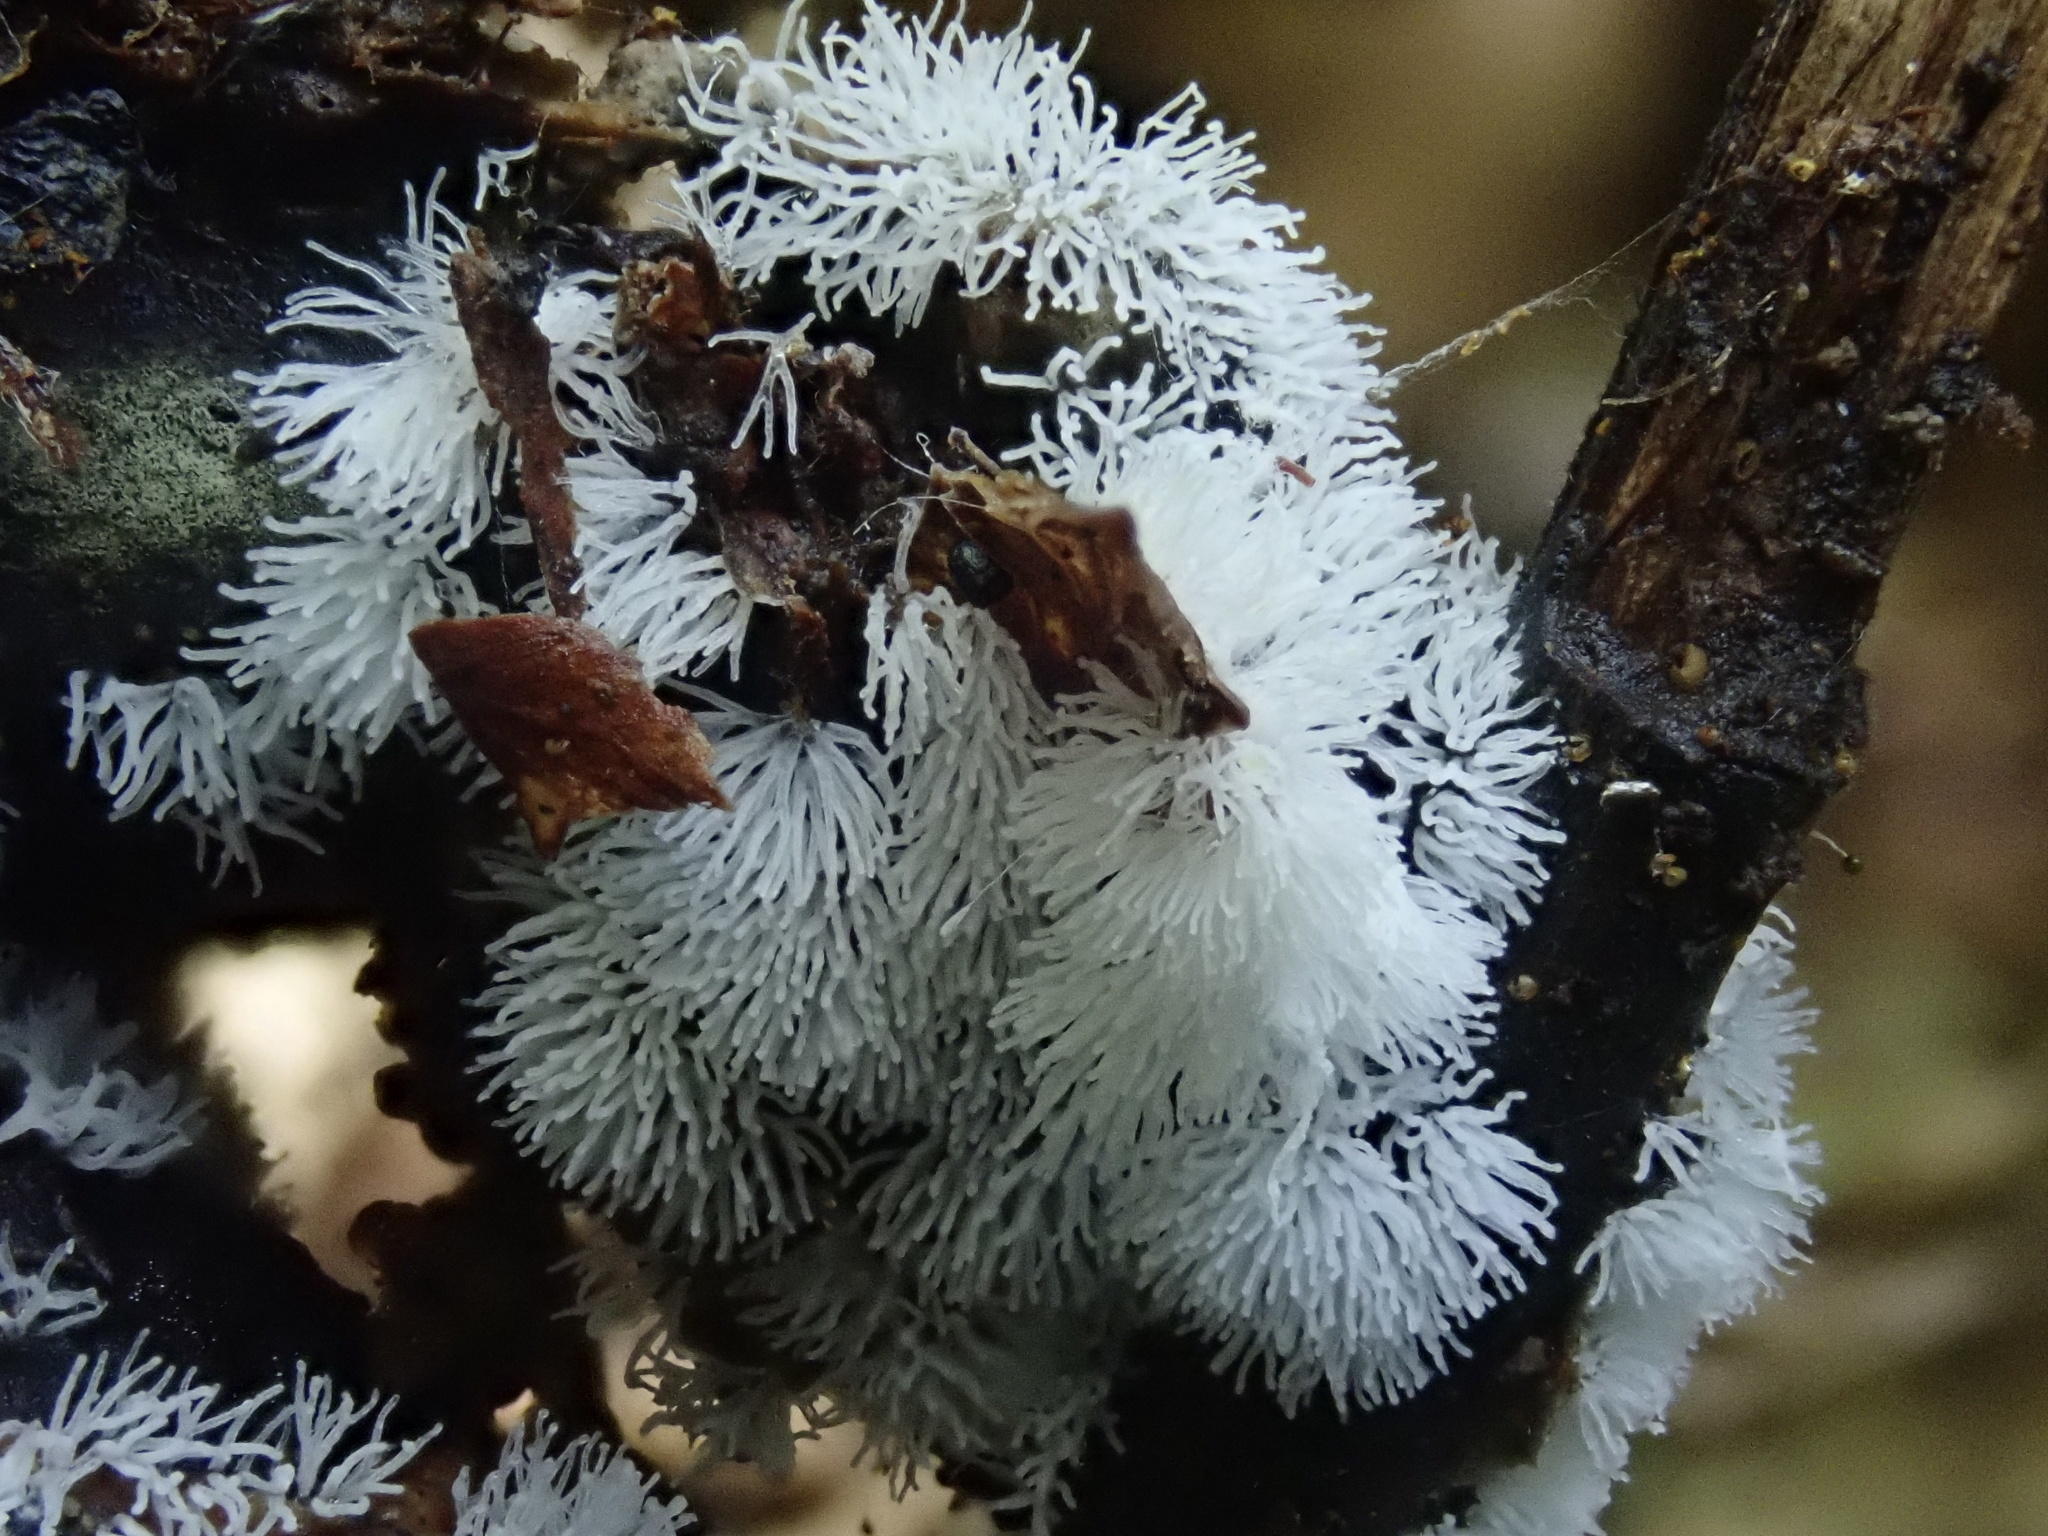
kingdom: Protozoa
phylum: Mycetozoa
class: Protosteliomycetes
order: Ceratiomyxales
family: Ceratiomyxaceae
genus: Ceratiomyxa
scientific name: Ceratiomyxa fruticulosa
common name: Honeycomb coral slime mold
